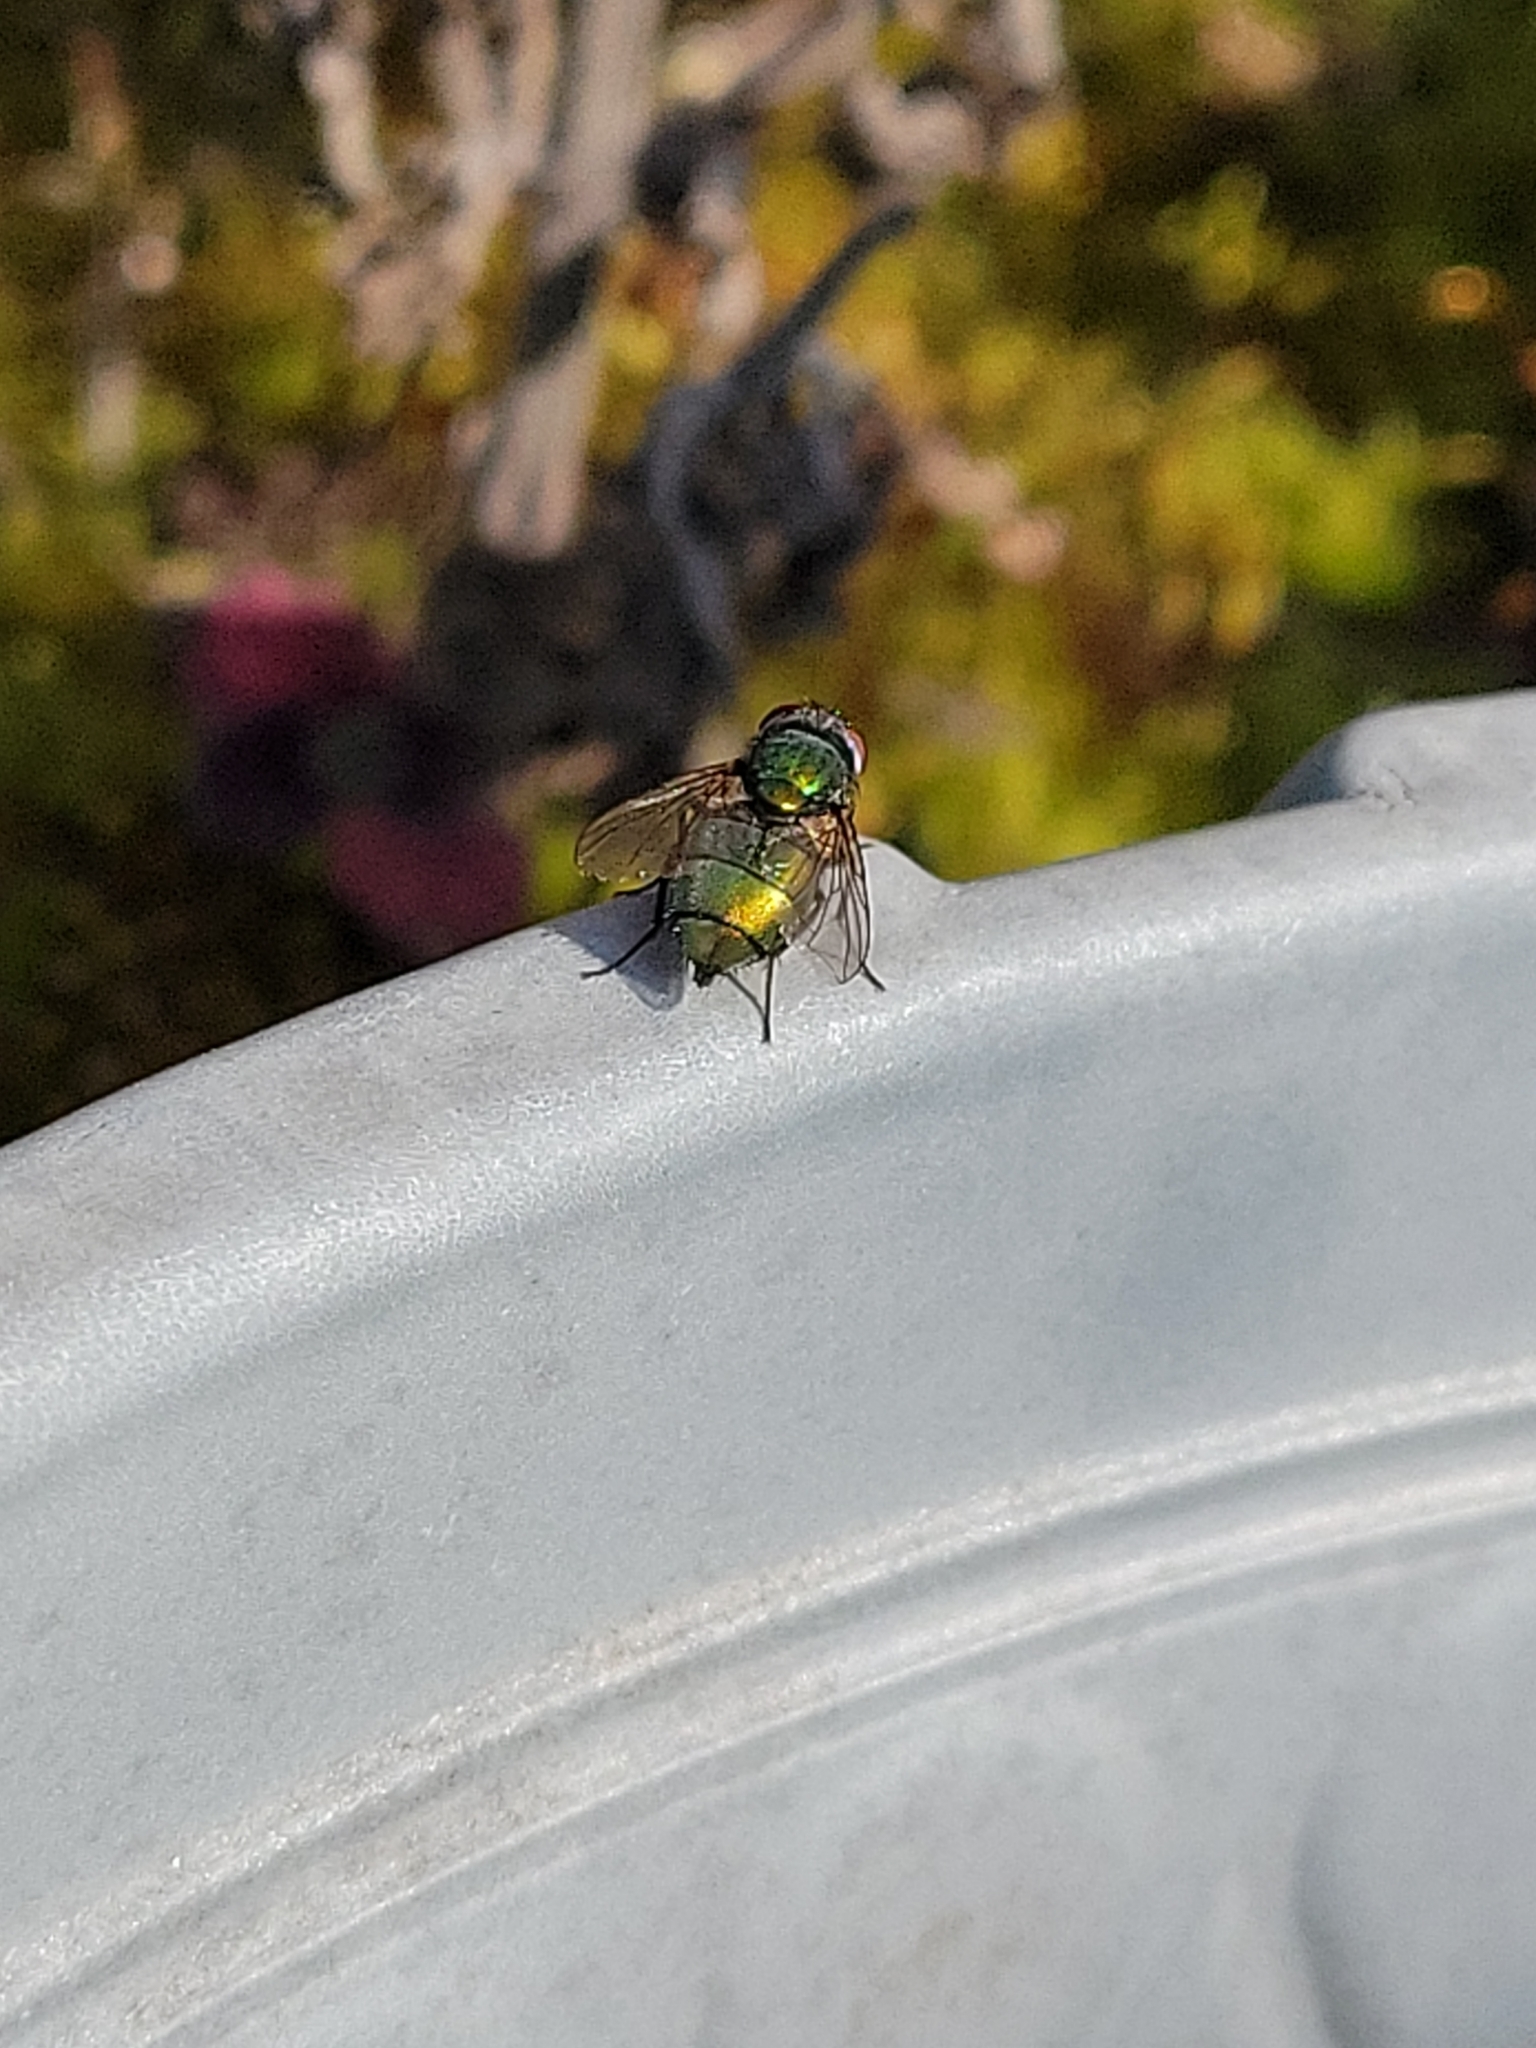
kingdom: Animalia
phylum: Arthropoda
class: Insecta
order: Diptera
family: Calliphoridae
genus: Lucilia
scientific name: Lucilia sericata
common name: Blow fly
